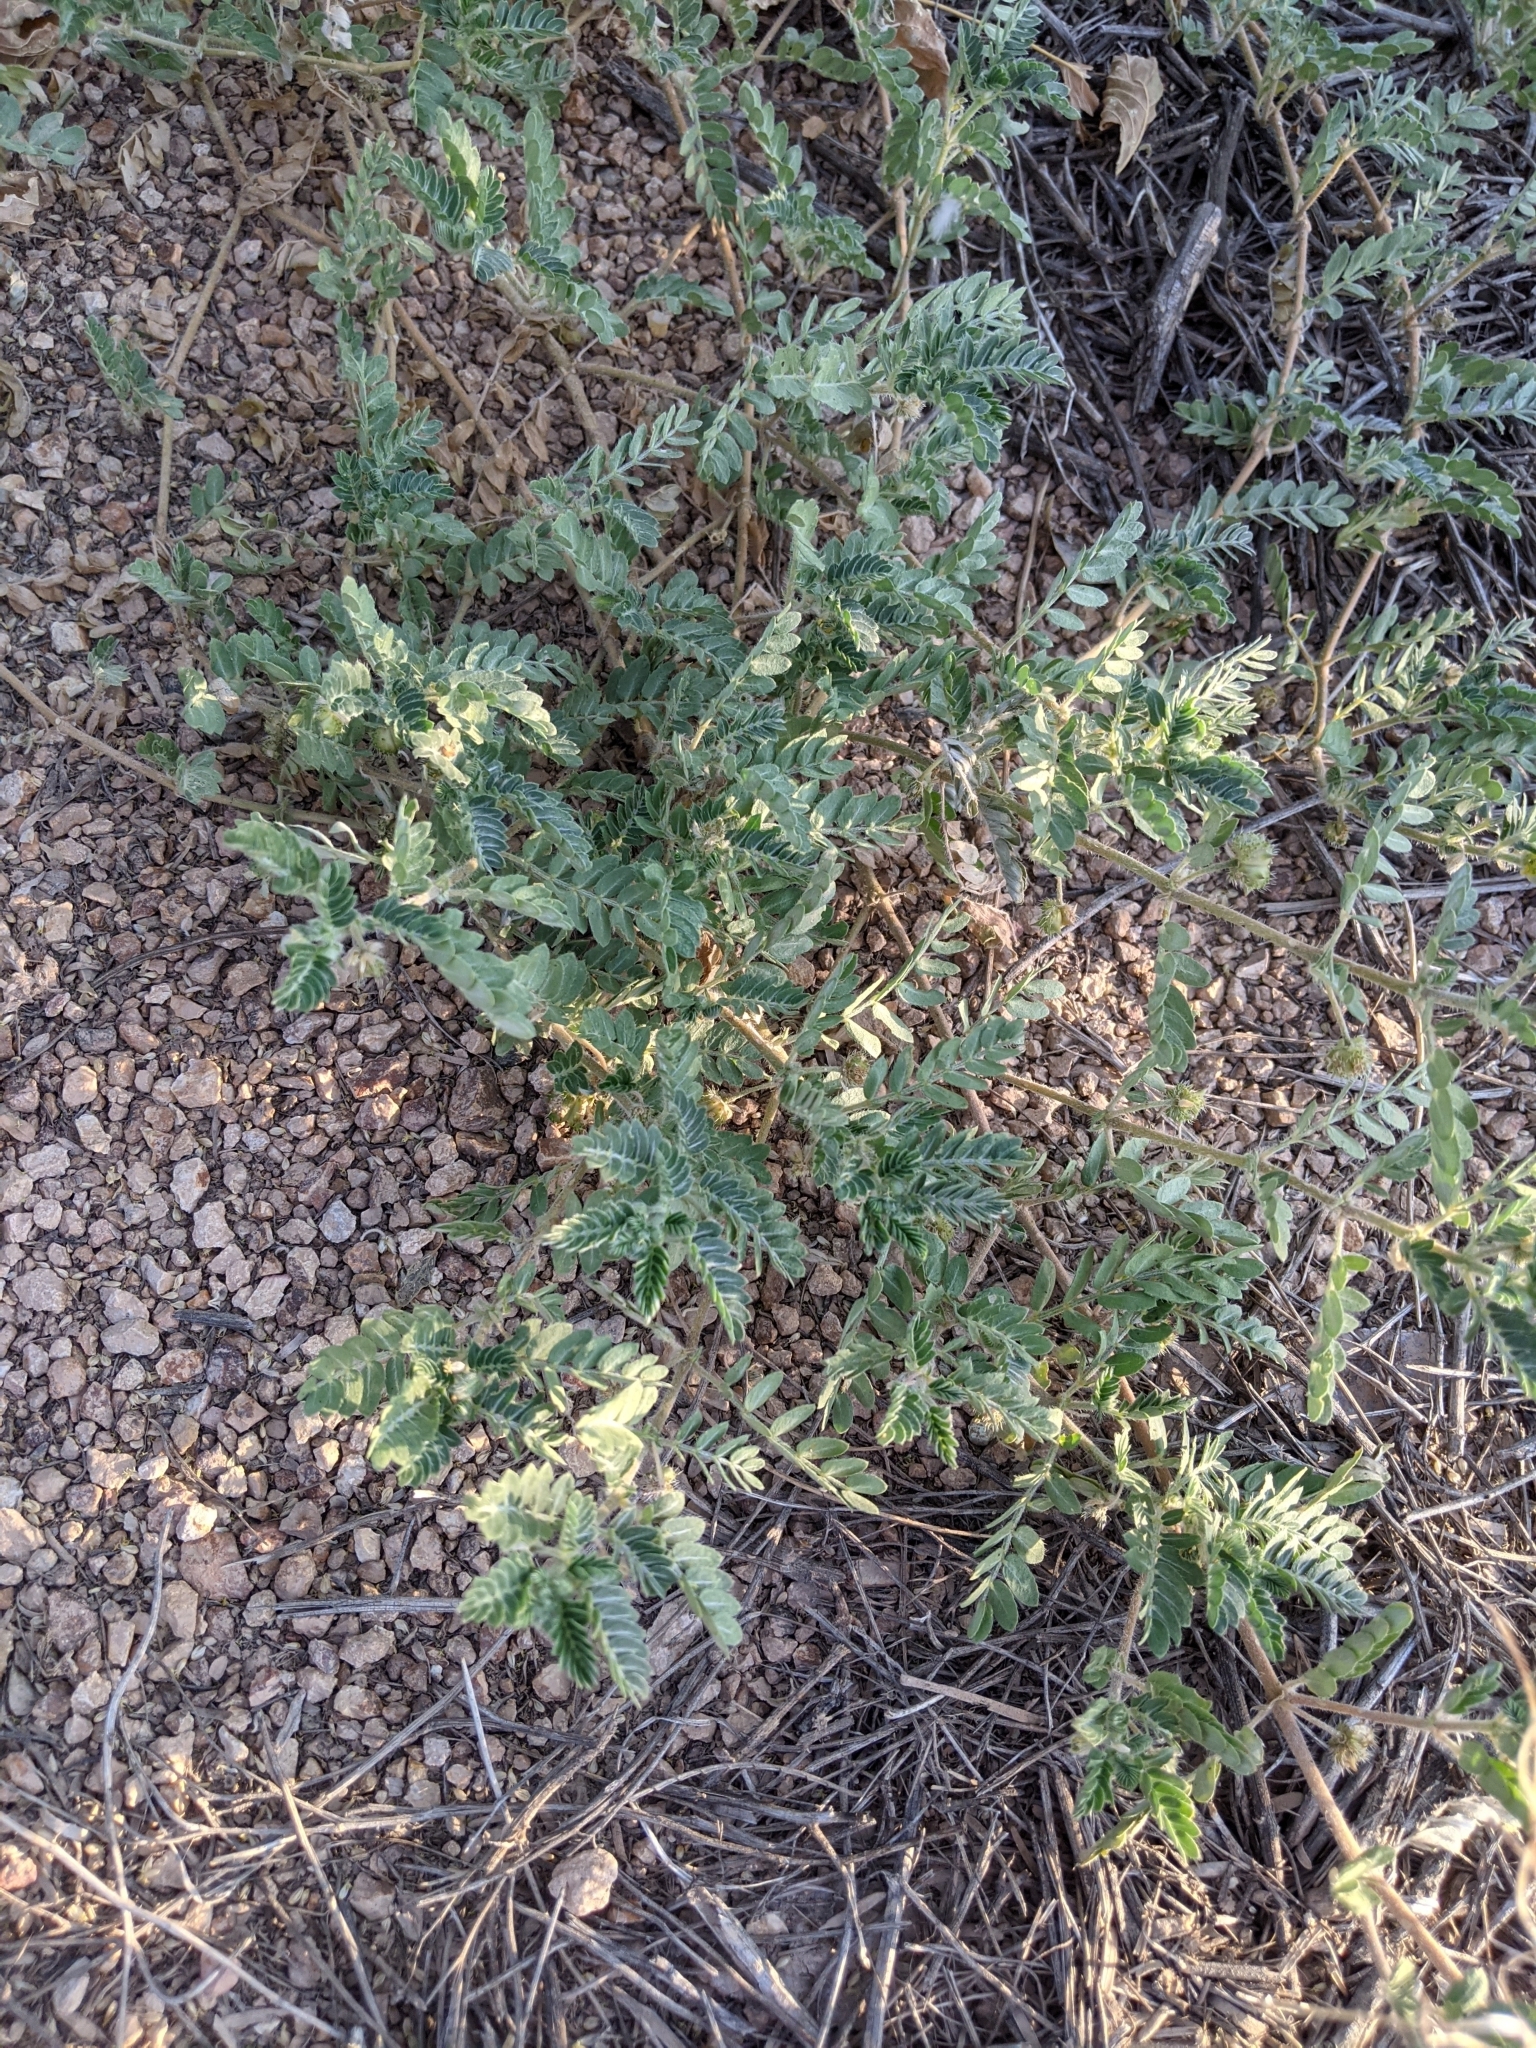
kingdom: Plantae
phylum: Tracheophyta
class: Magnoliopsida
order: Zygophyllales
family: Zygophyllaceae
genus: Tribulus
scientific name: Tribulus terrestris
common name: Puncturevine
